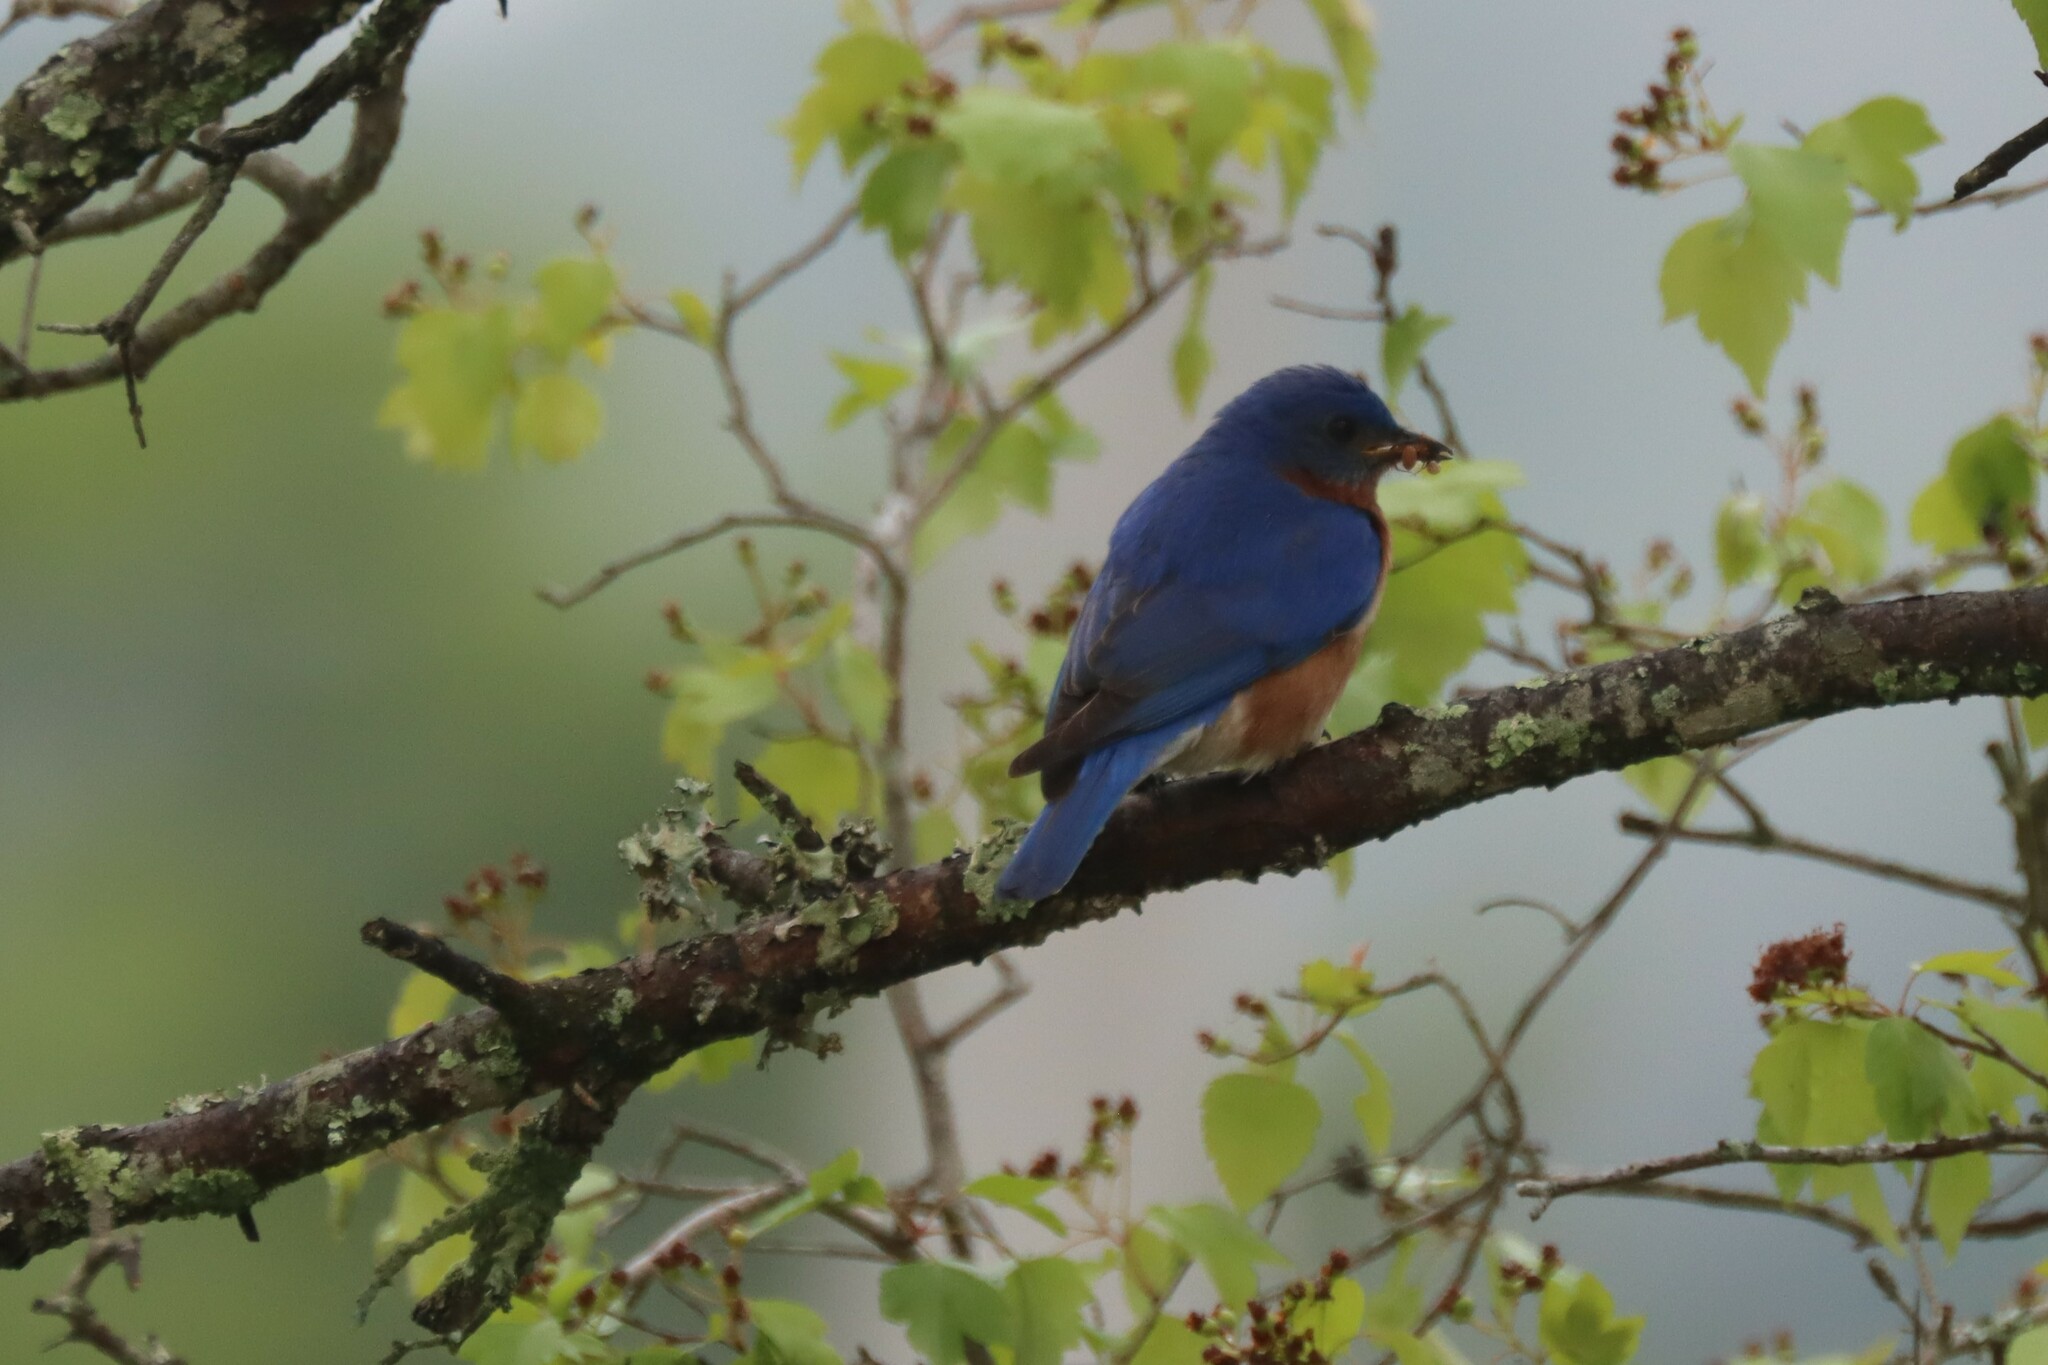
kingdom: Animalia
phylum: Chordata
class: Aves
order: Passeriformes
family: Turdidae
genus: Sialia
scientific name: Sialia sialis
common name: Eastern bluebird
